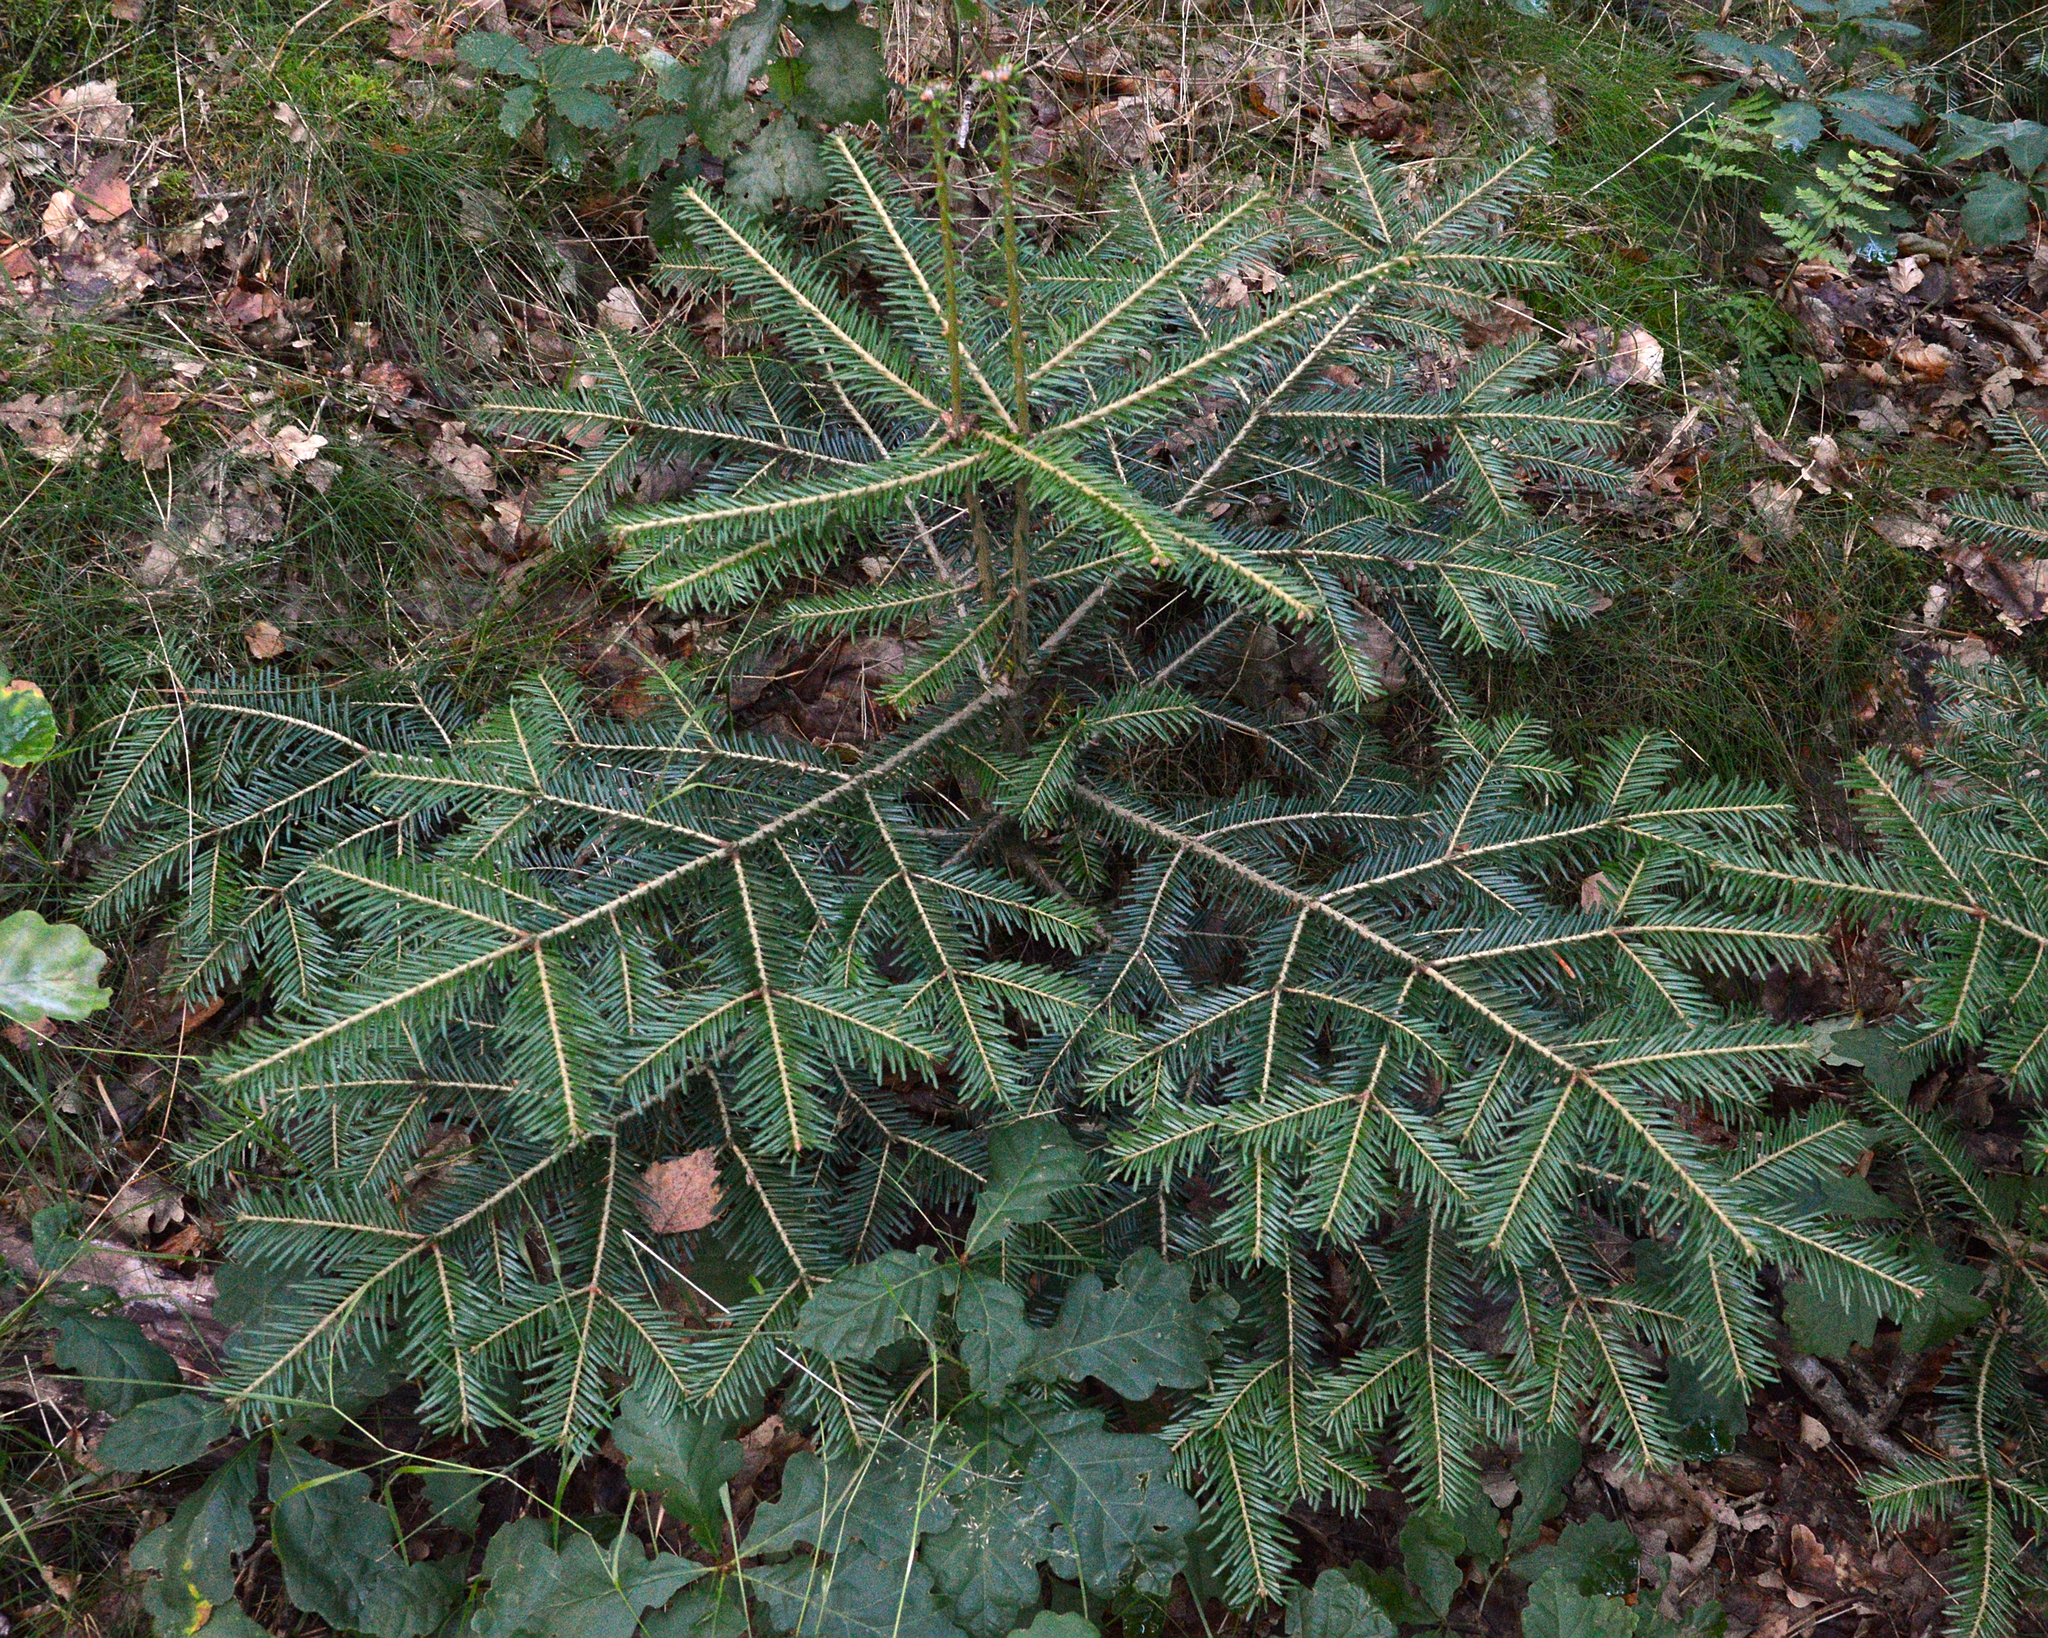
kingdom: Plantae
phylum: Tracheophyta
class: Pinopsida
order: Pinales
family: Pinaceae
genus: Abies
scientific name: Abies alba
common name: Silver fir
